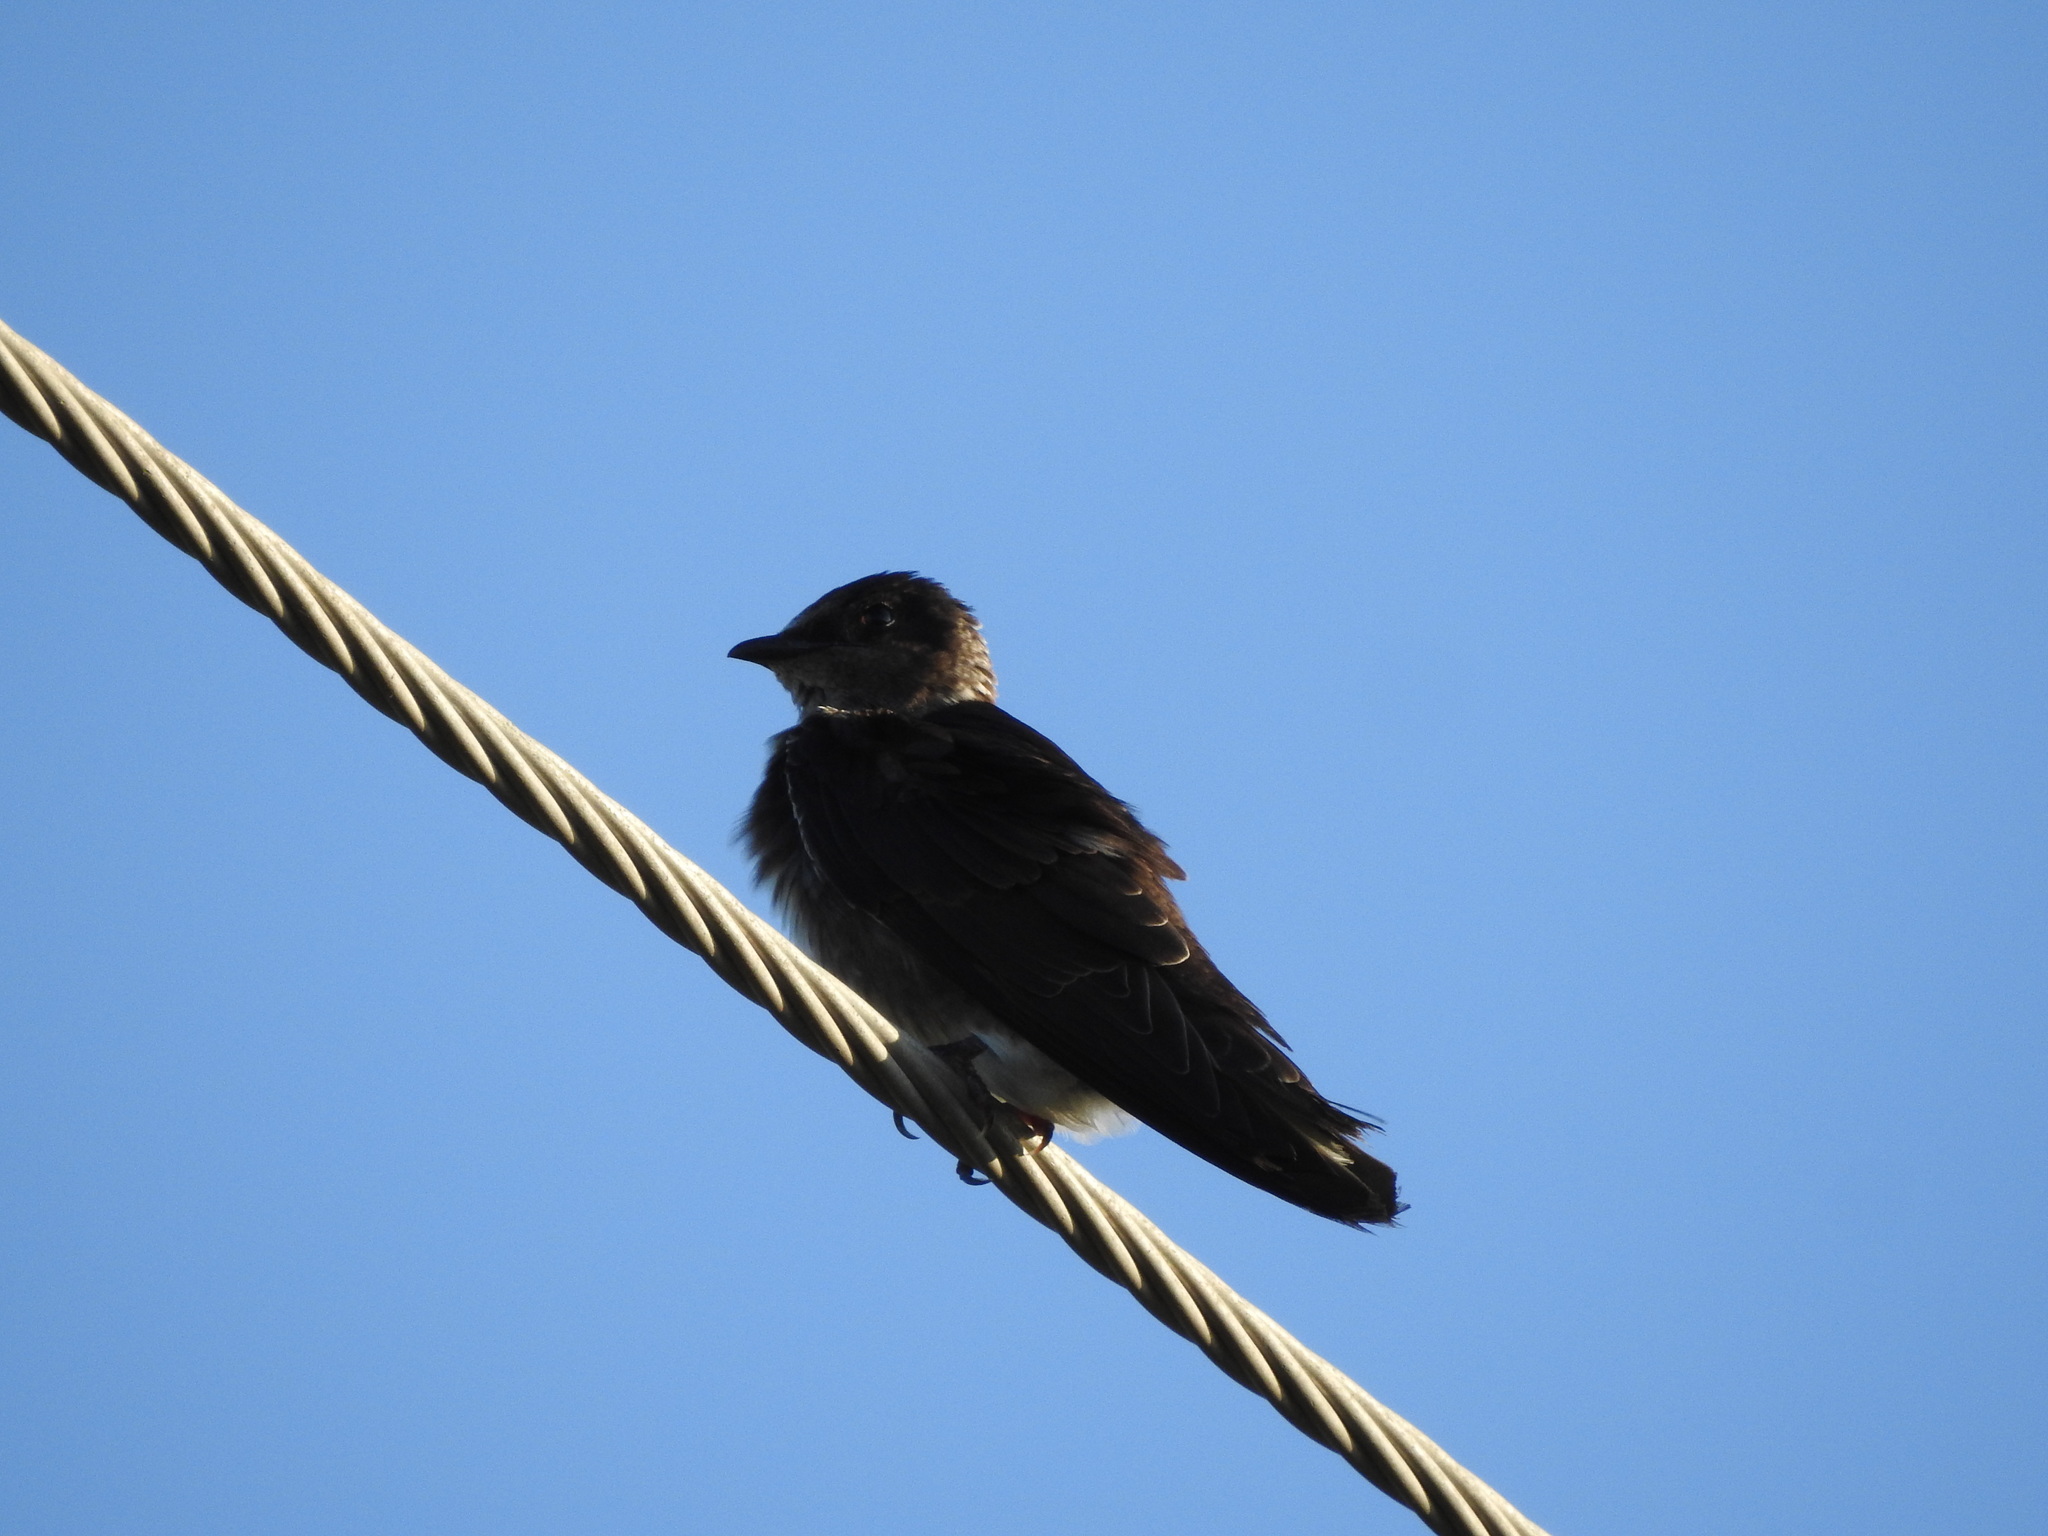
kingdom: Animalia
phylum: Chordata
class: Aves
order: Passeriformes
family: Hirundinidae
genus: Progne
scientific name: Progne subis
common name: Purple martin
